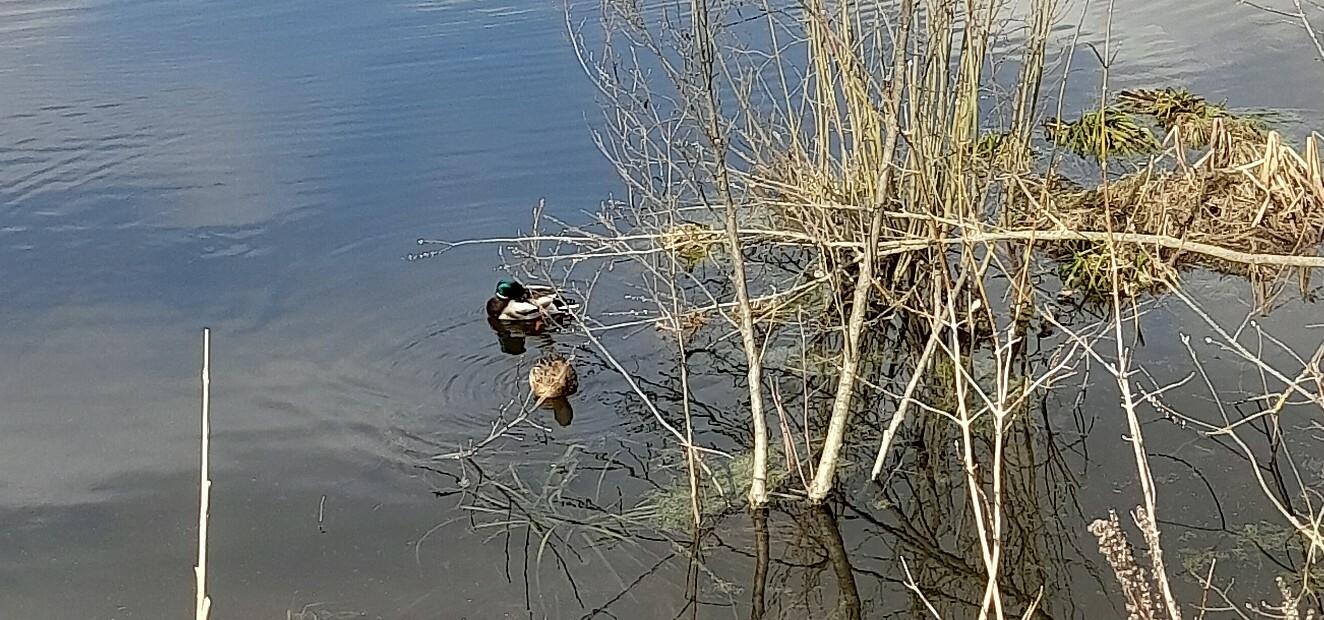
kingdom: Animalia
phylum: Chordata
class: Aves
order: Anseriformes
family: Anatidae
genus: Anas
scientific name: Anas platyrhynchos
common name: Mallard
